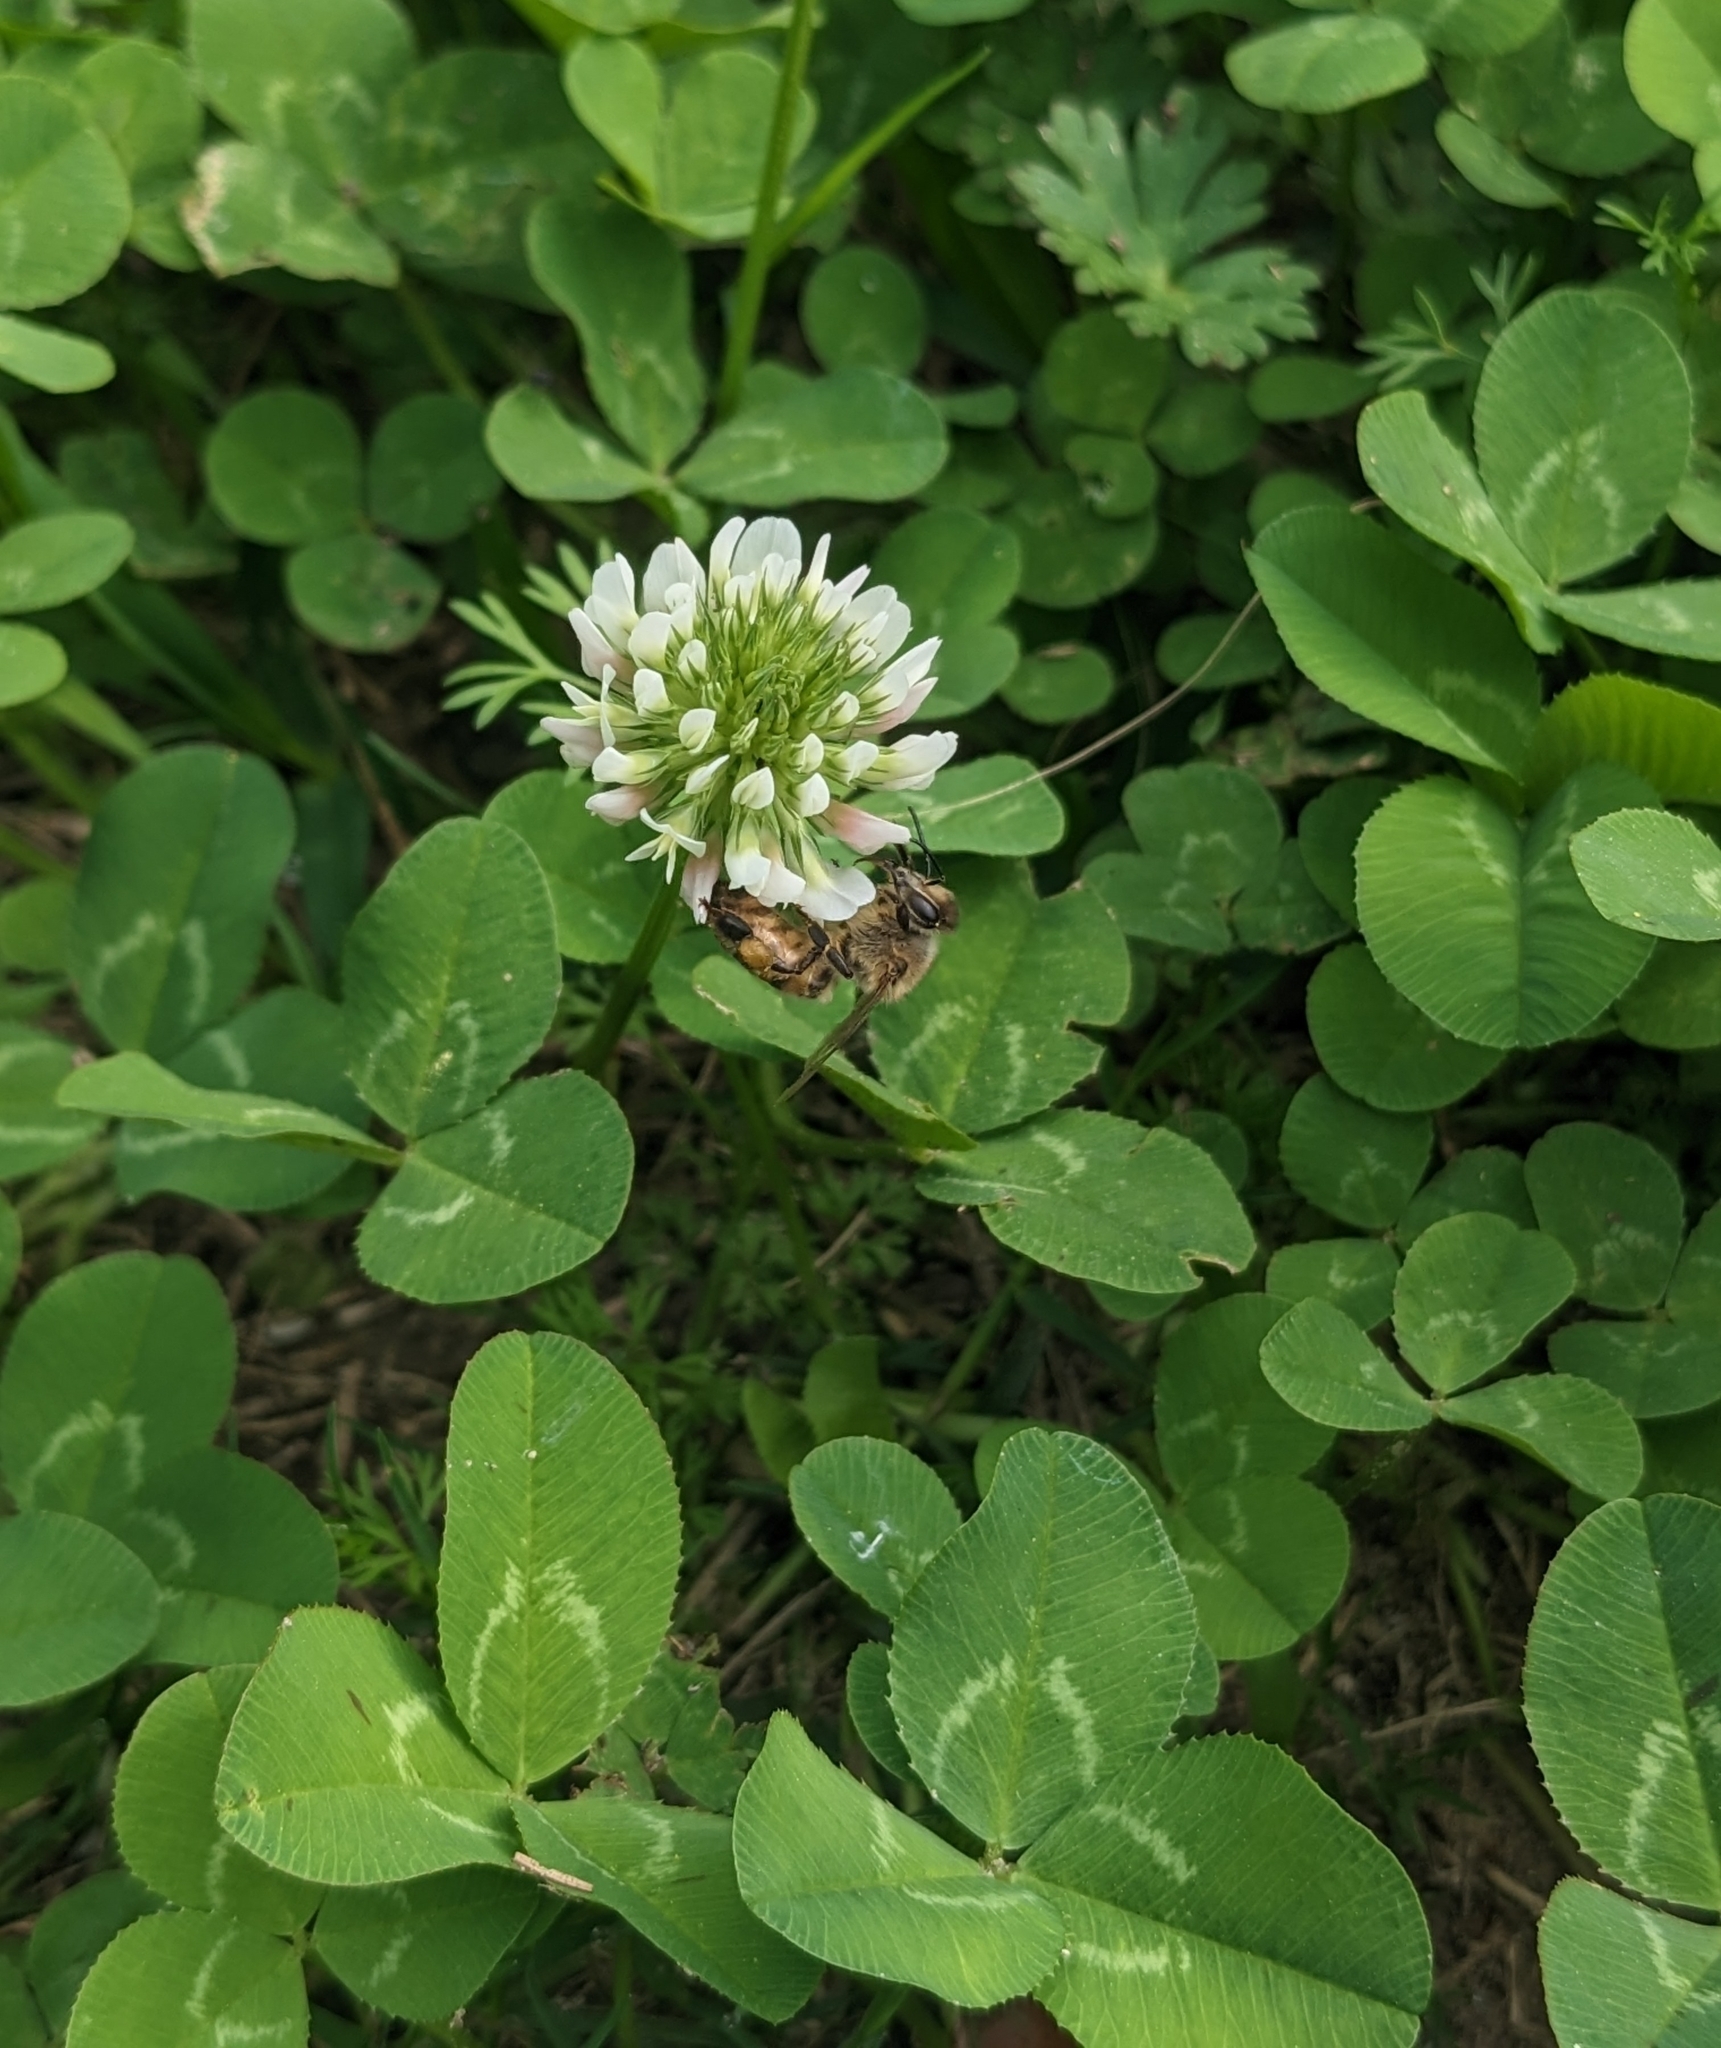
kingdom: Plantae
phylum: Tracheophyta
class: Magnoliopsida
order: Fabales
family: Fabaceae
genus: Trifolium
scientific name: Trifolium repens
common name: White clover
